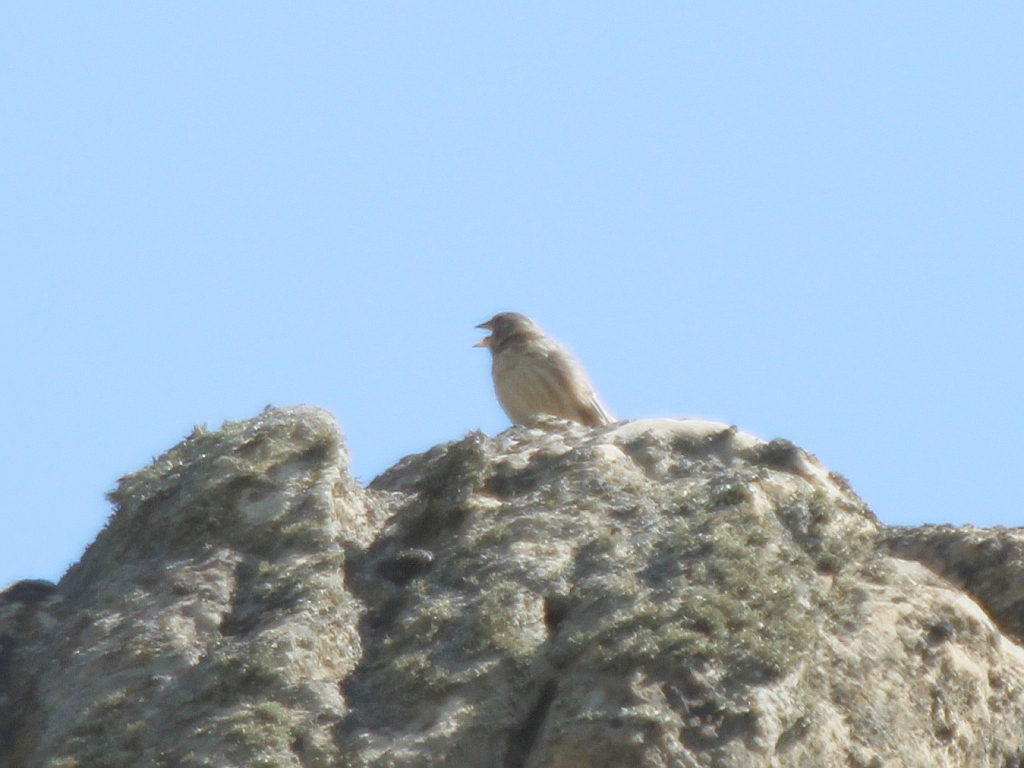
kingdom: Animalia
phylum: Chordata
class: Aves
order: Passeriformes
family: Passeridae
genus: Petronia
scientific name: Petronia petronia
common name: Rock sparrow
